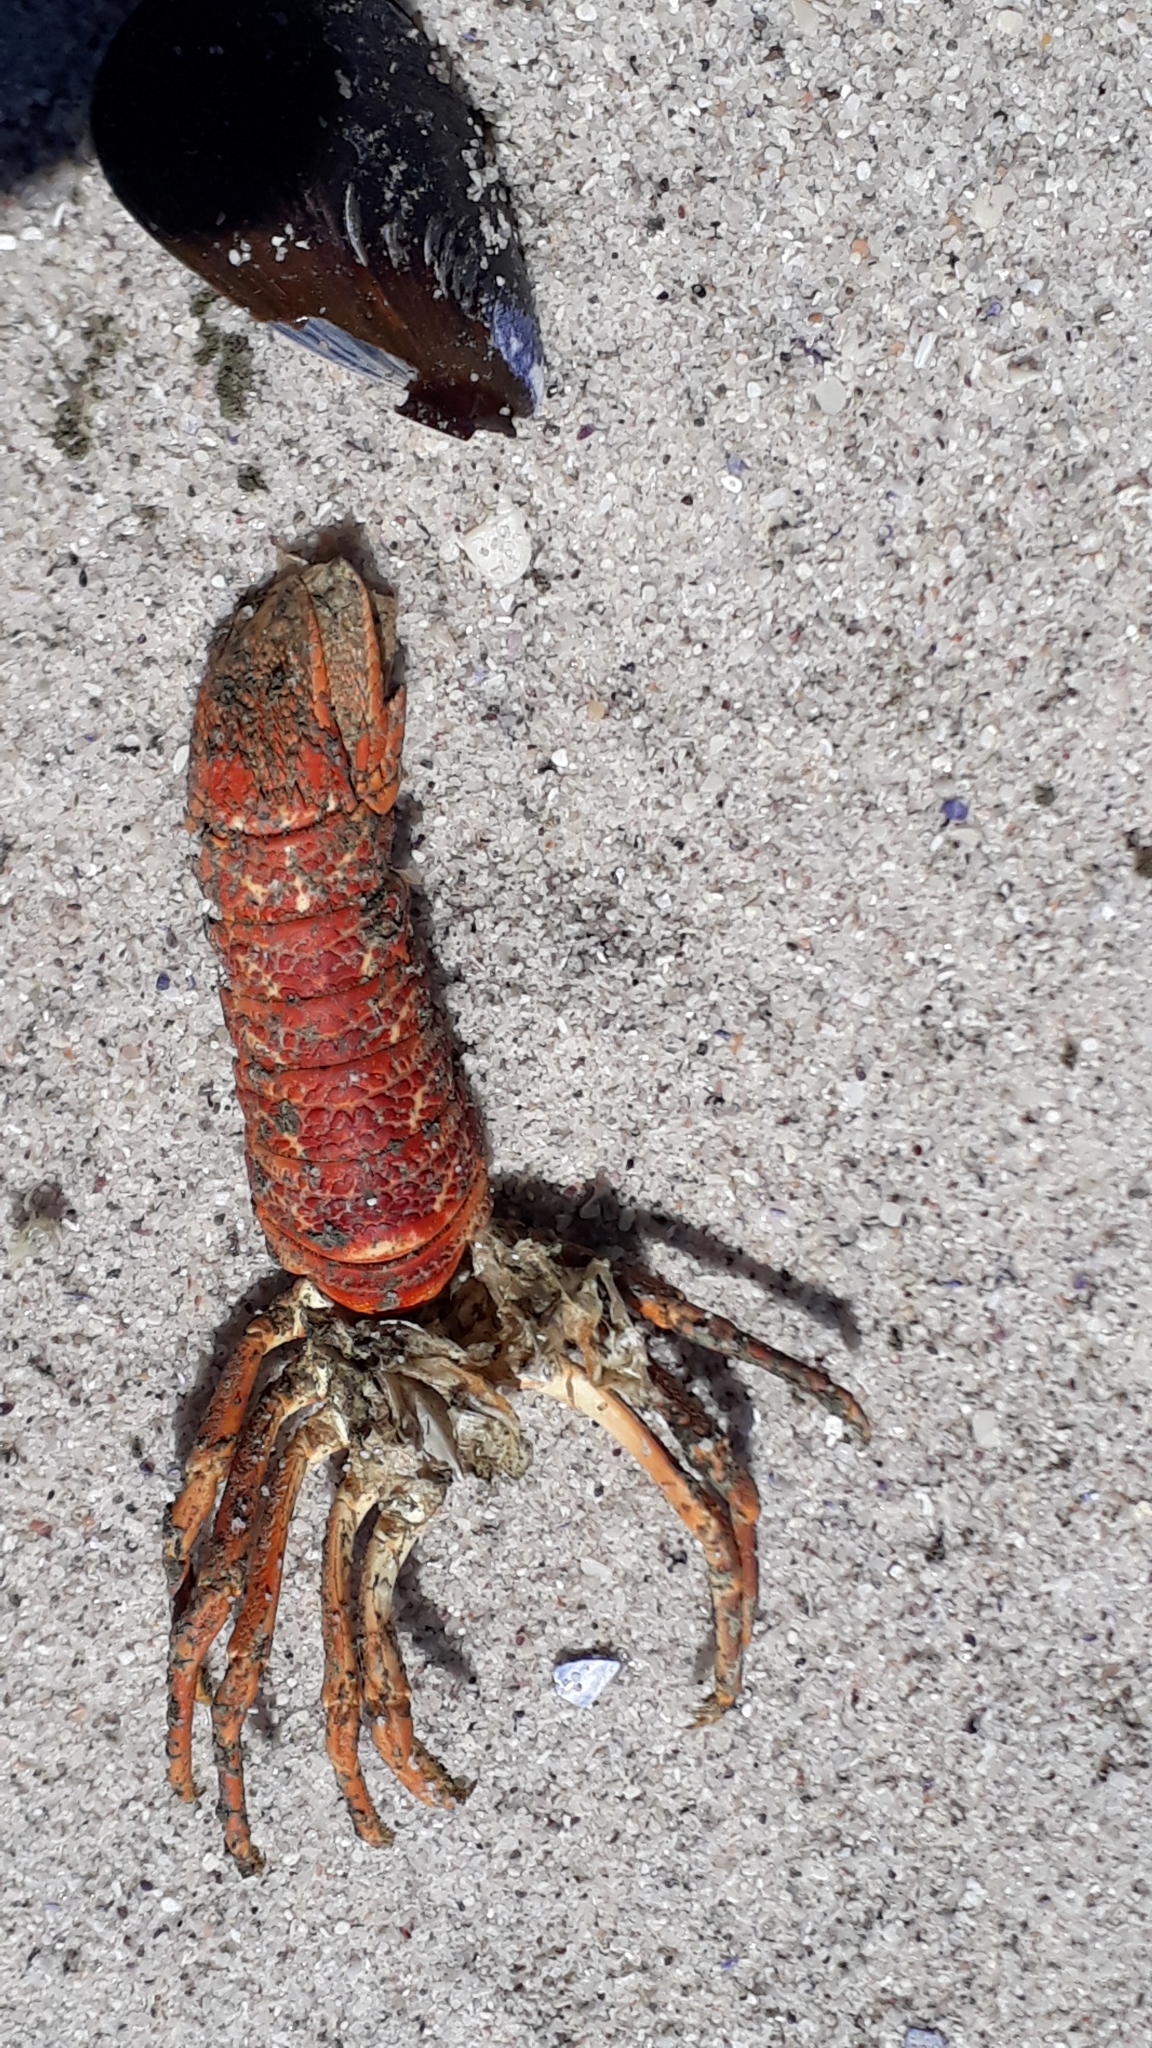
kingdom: Animalia
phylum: Arthropoda
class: Malacostraca
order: Decapoda
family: Palinuridae
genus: Jasus
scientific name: Jasus lalandii
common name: Cape rock lobster
